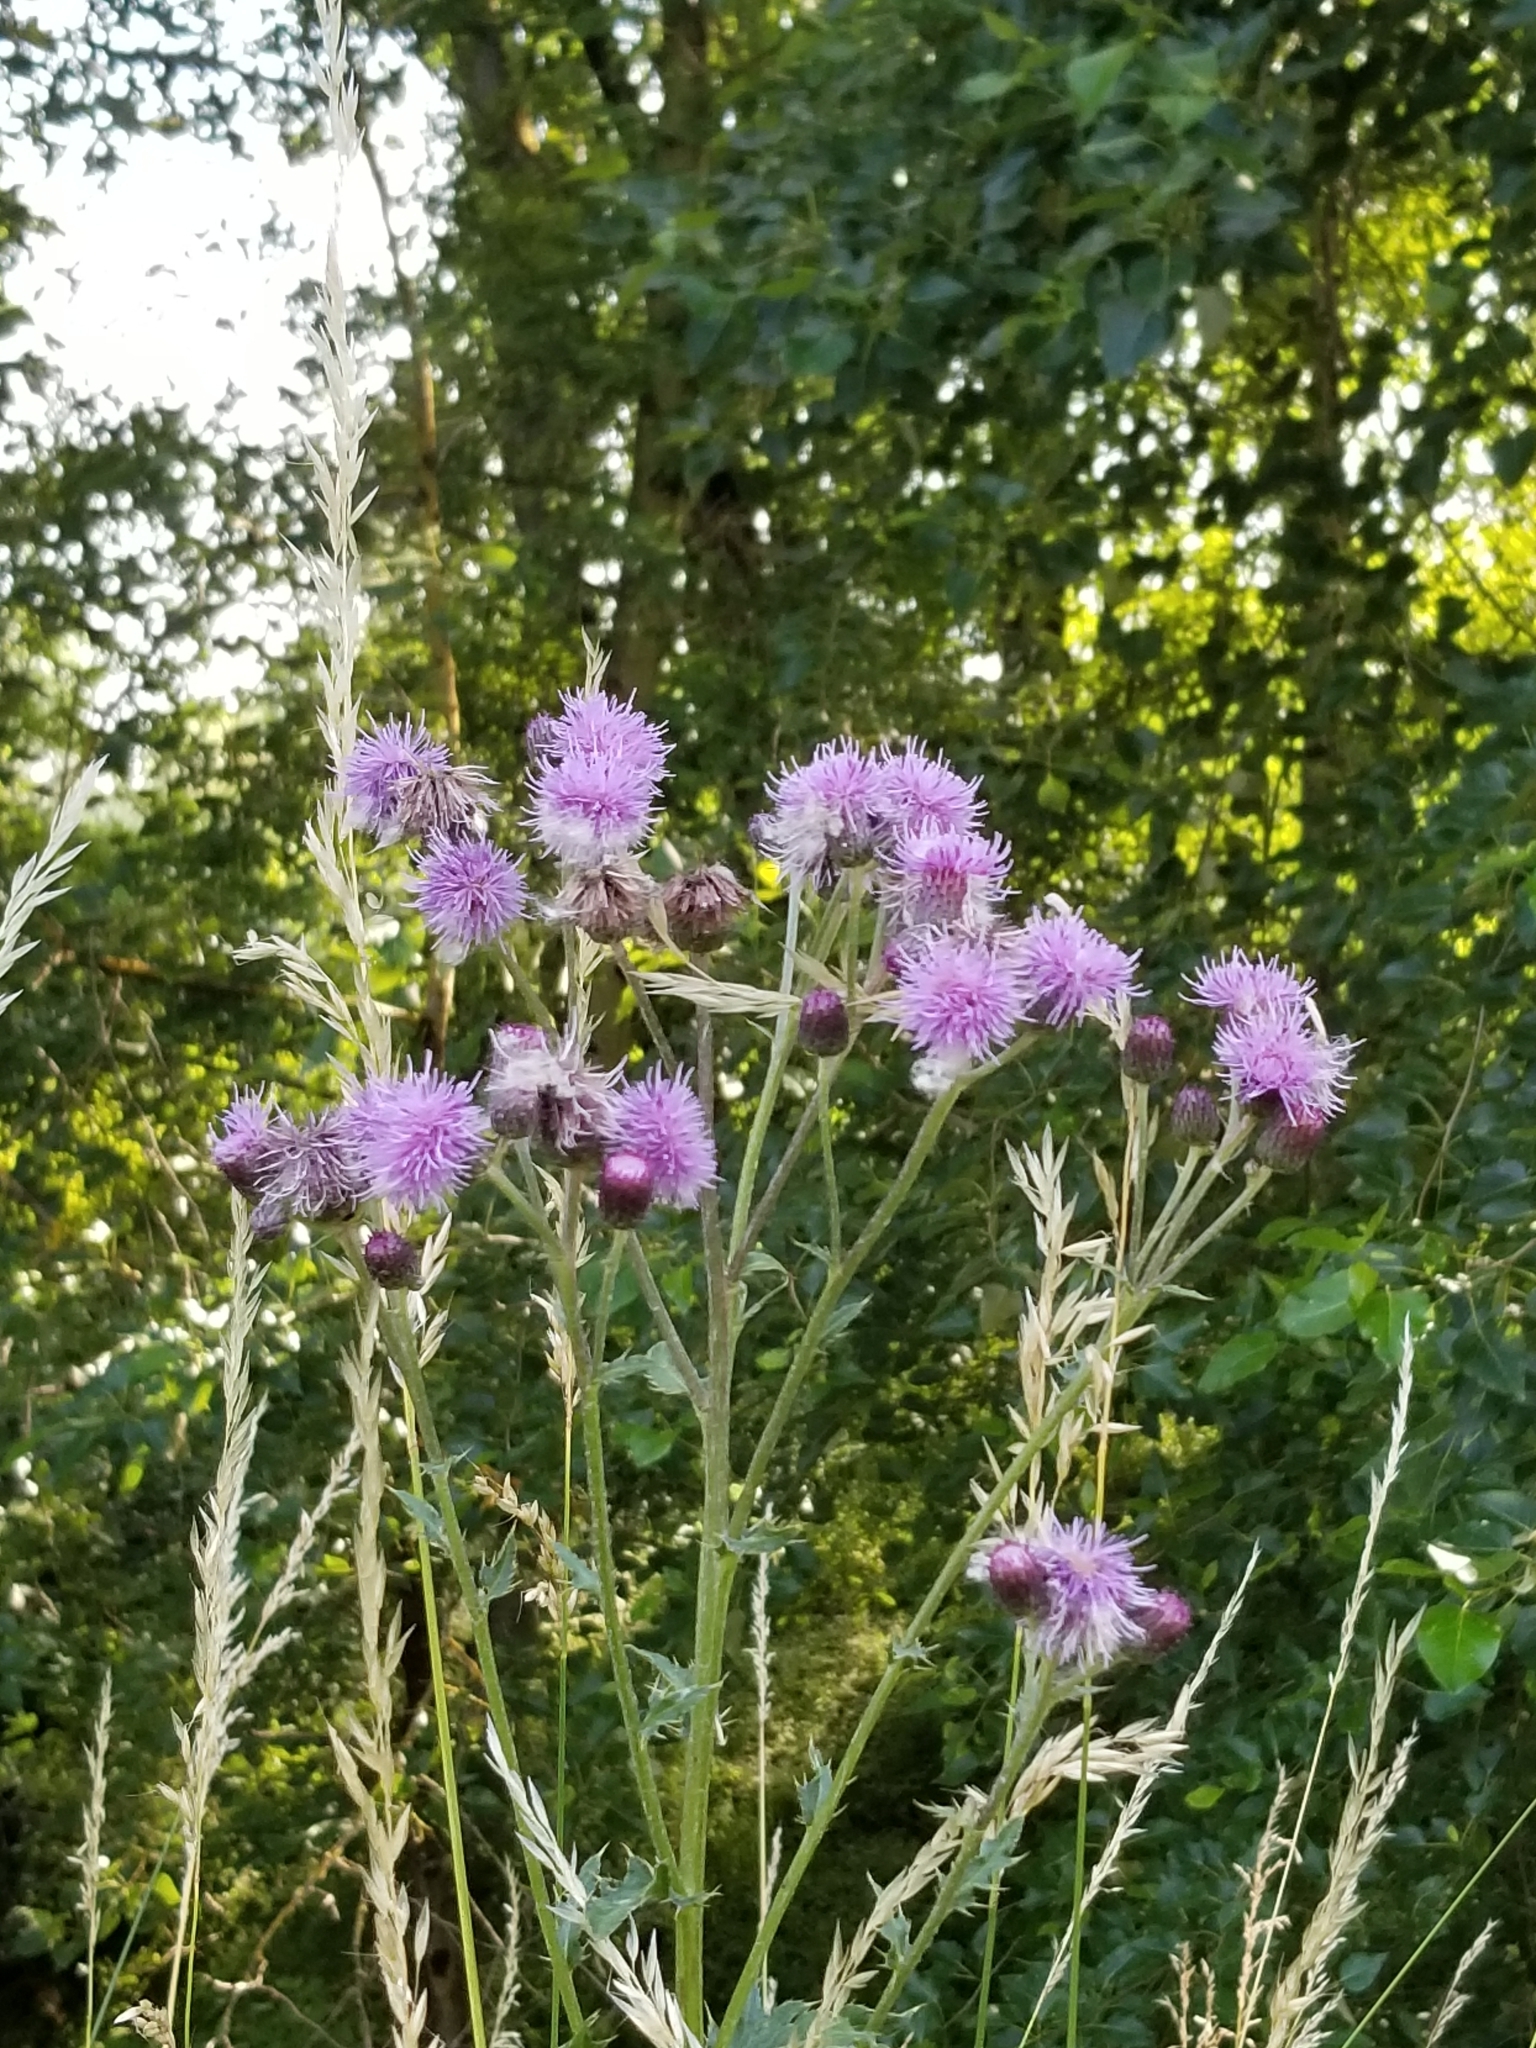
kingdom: Plantae
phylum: Tracheophyta
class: Magnoliopsida
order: Asterales
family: Asteraceae
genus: Cirsium
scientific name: Cirsium arvense
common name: Creeping thistle
